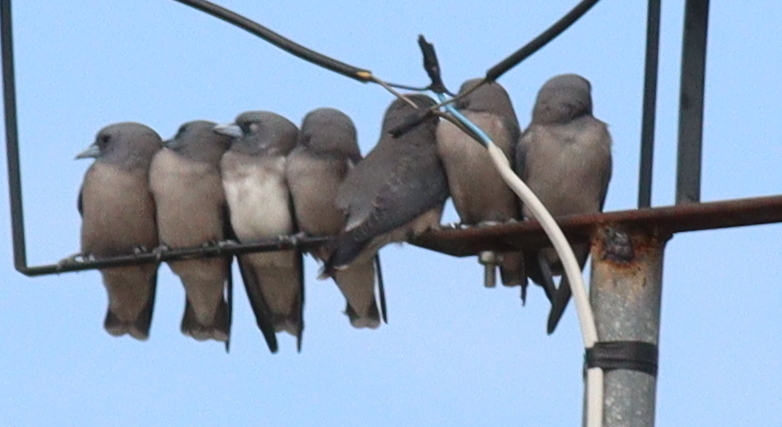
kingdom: Animalia
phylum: Chordata
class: Aves
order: Passeriformes
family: Artamidae
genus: Artamus
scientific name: Artamus fuscus
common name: Ashy woodswallow
